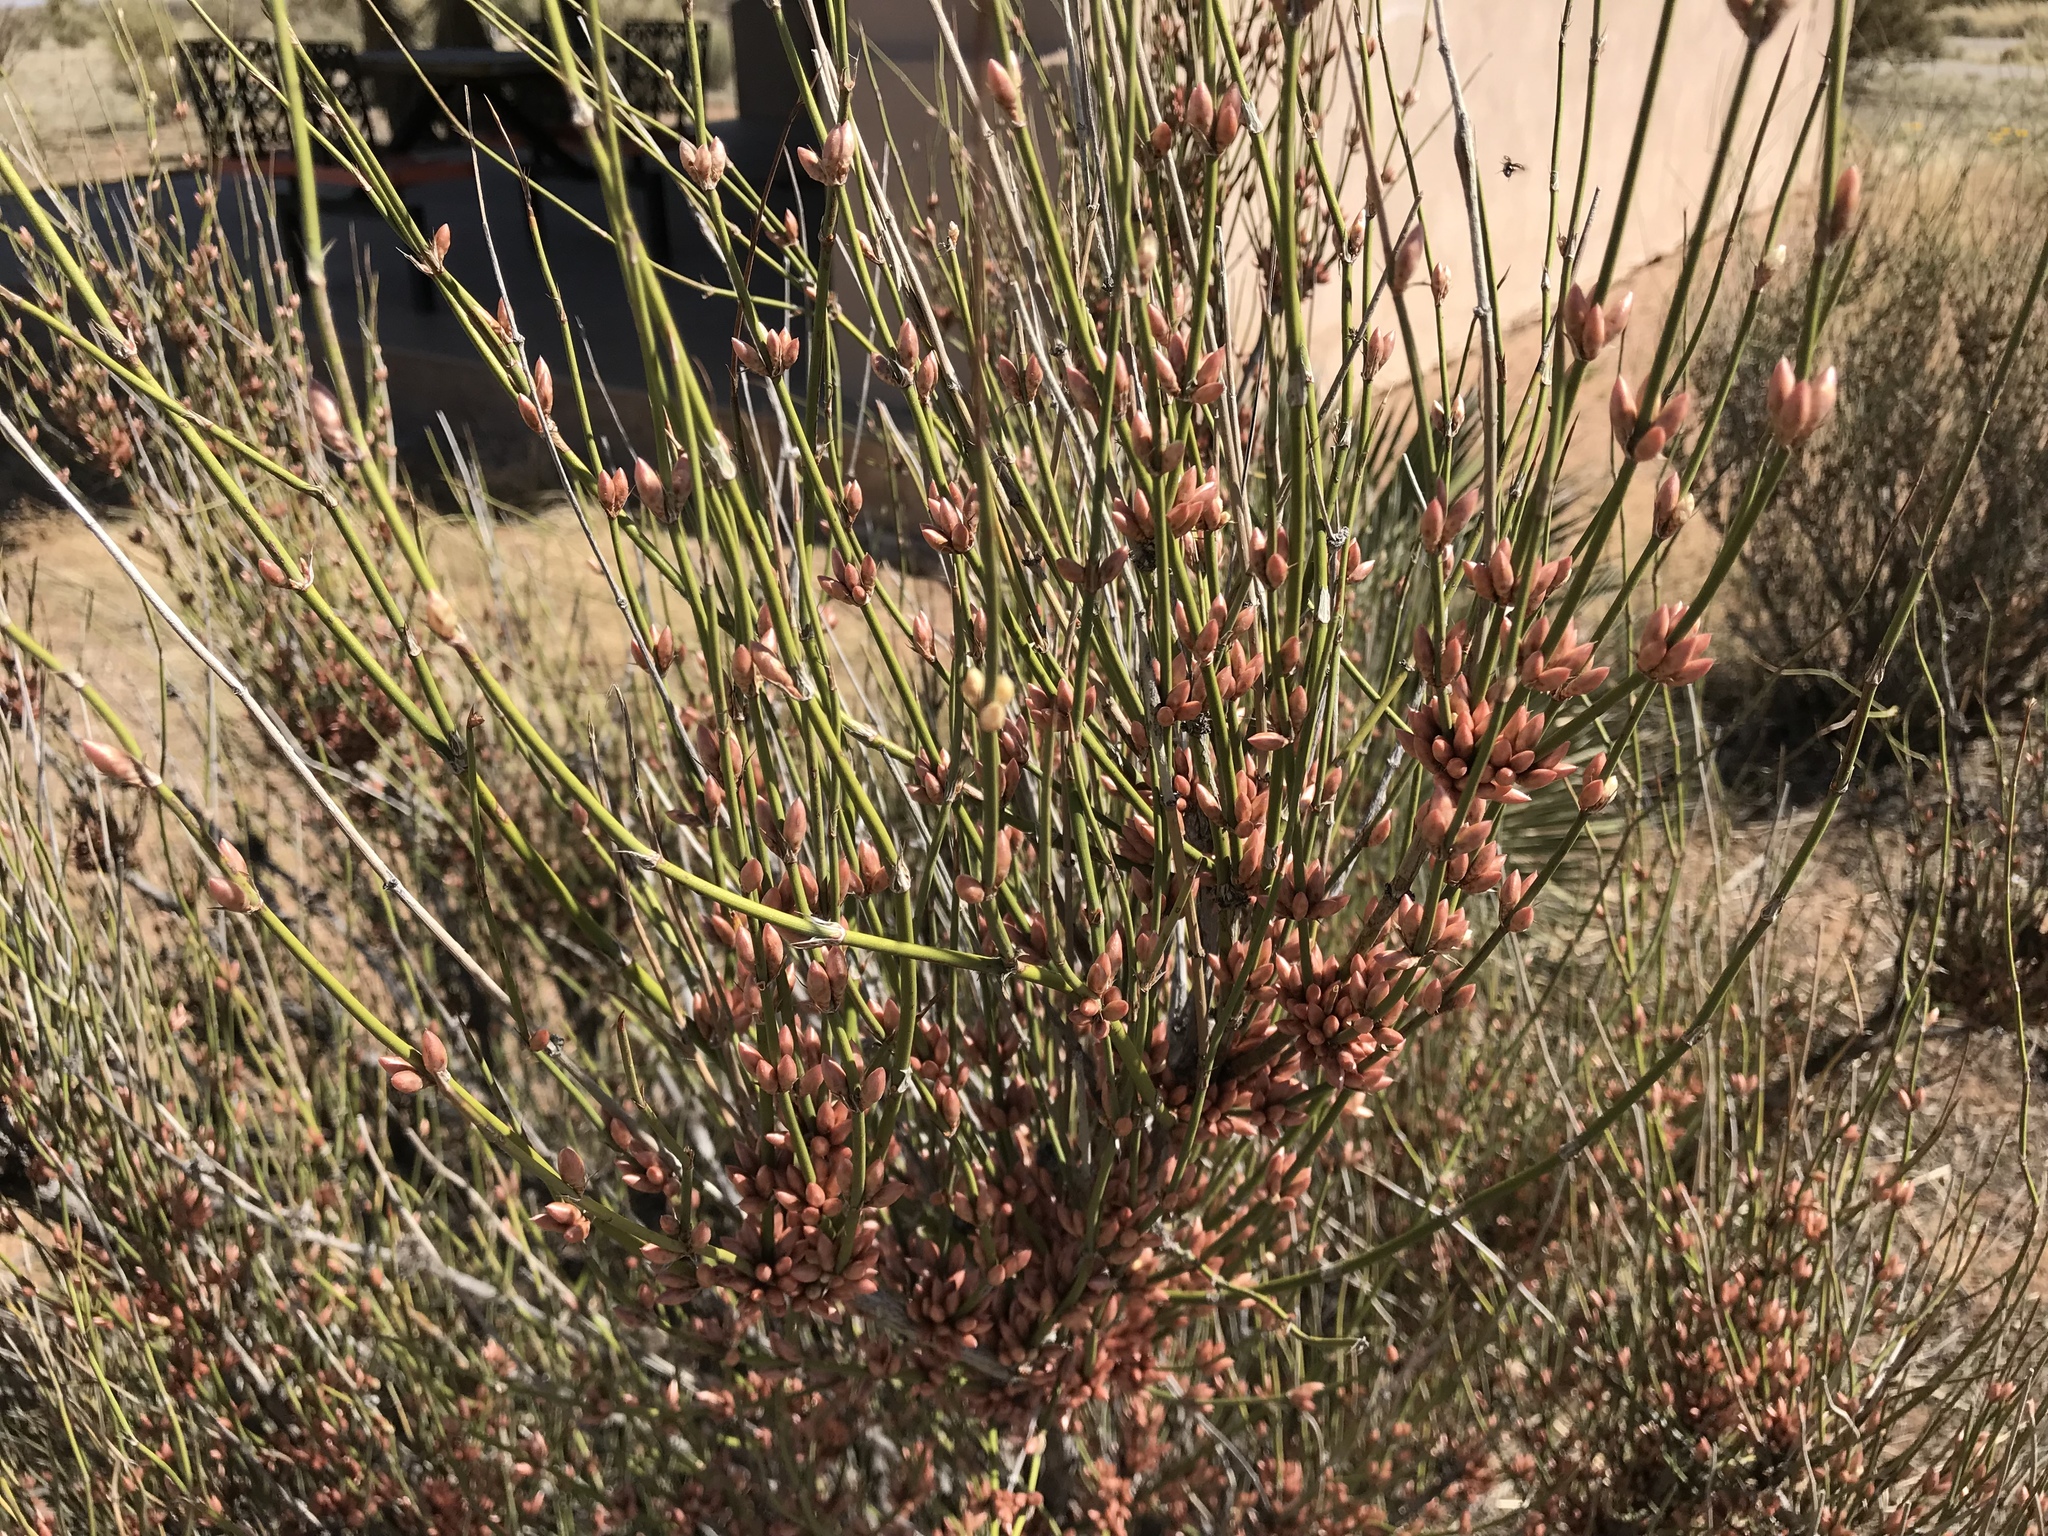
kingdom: Plantae
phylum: Tracheophyta
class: Gnetopsida
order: Ephedrales
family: Ephedraceae
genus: Ephedra
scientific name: Ephedra trifurca
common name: Mexican-tea
